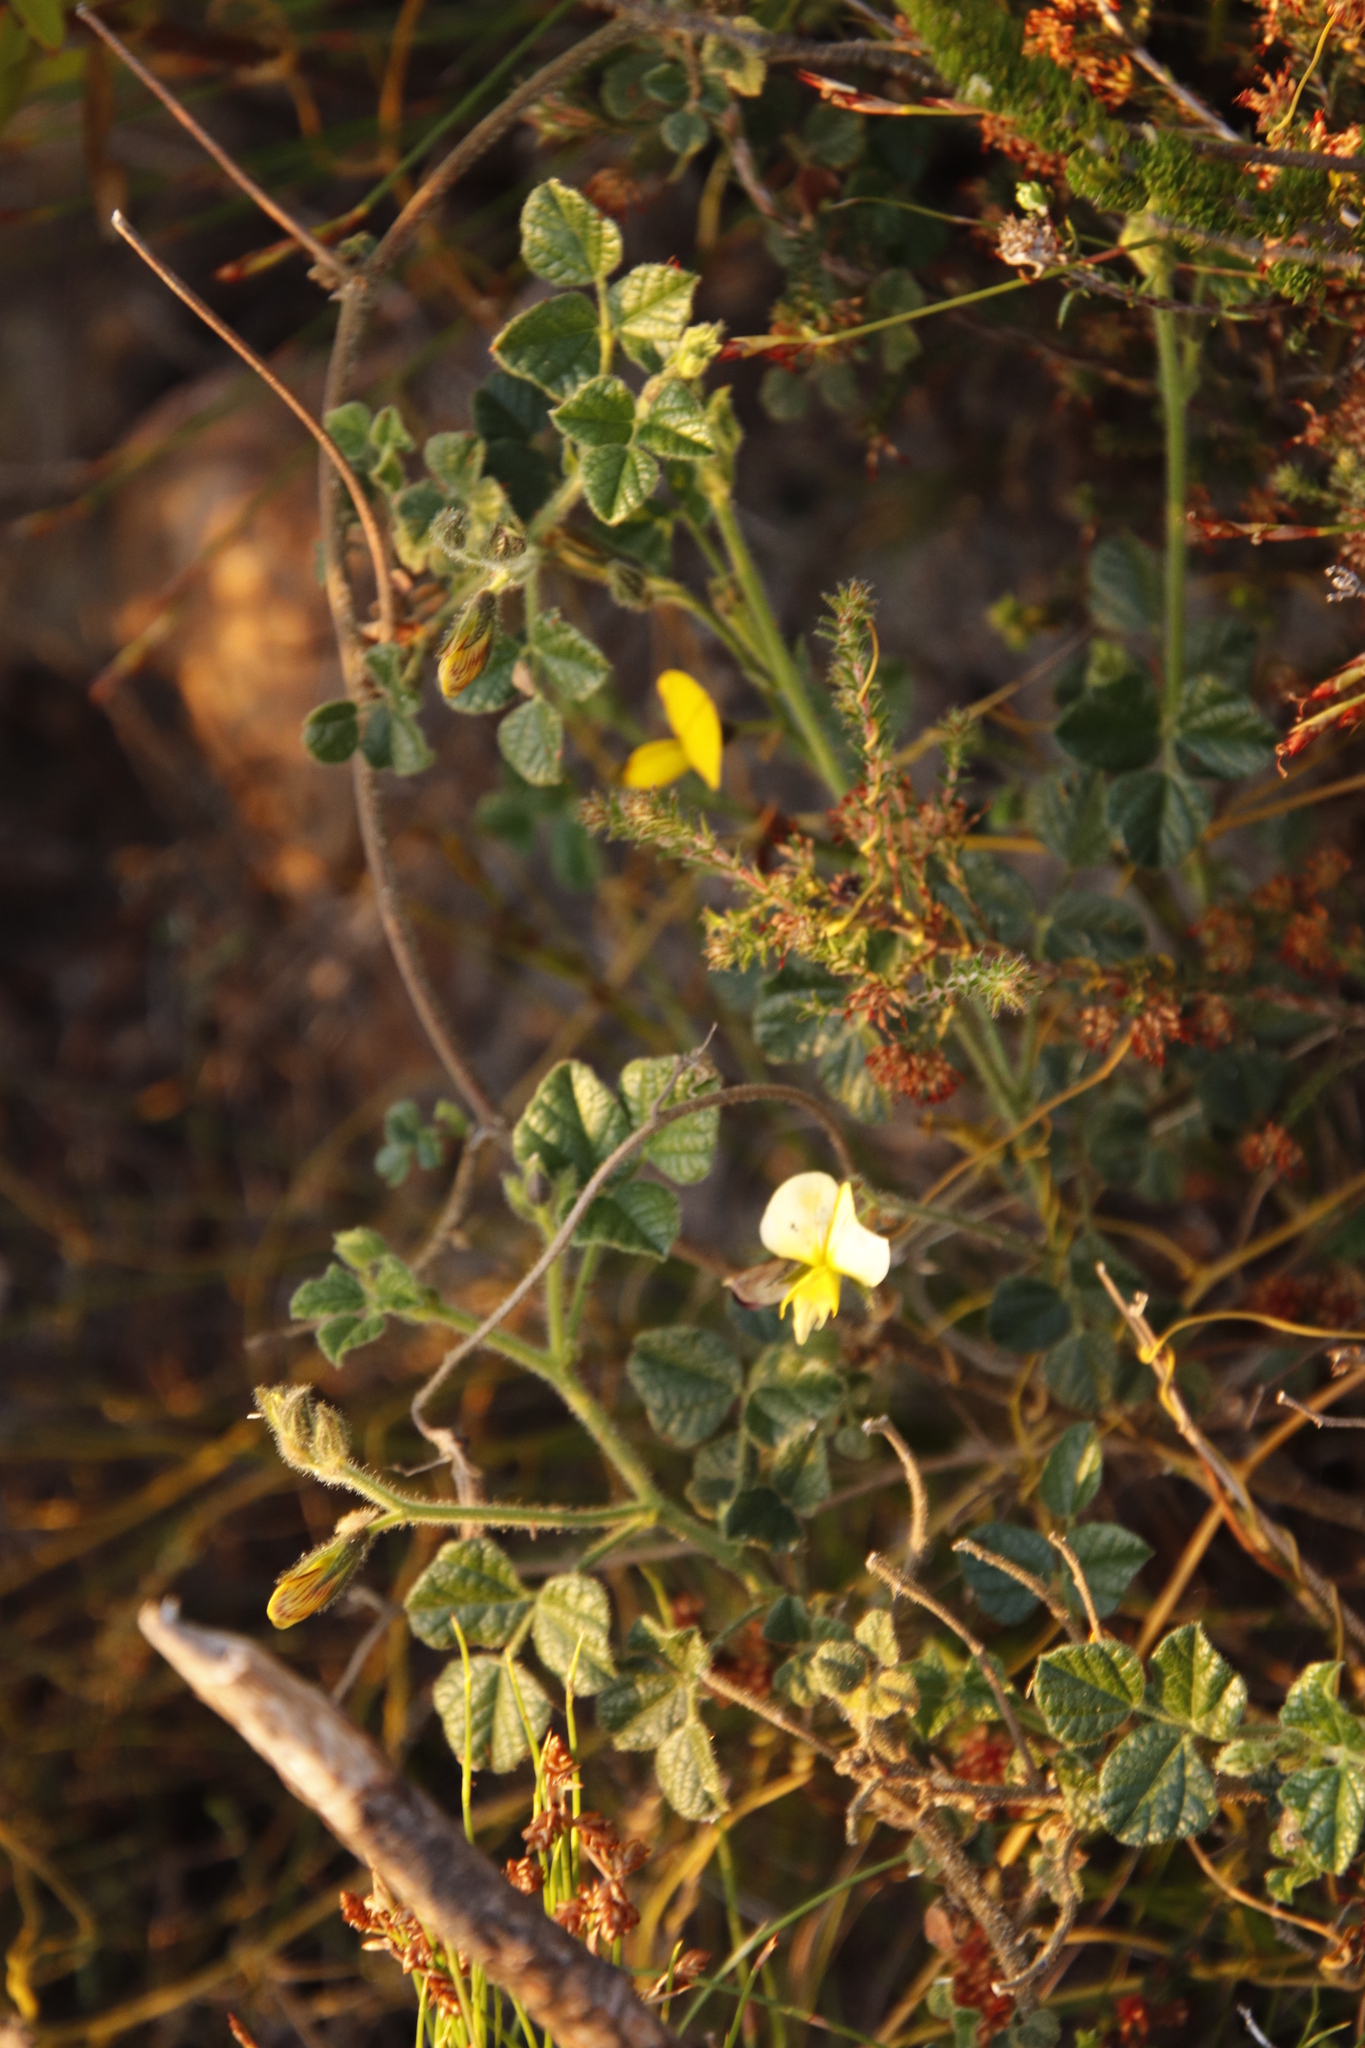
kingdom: Plantae
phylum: Tracheophyta
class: Magnoliopsida
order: Fabales
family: Fabaceae
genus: Bolusafra
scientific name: Bolusafra bituminosa
